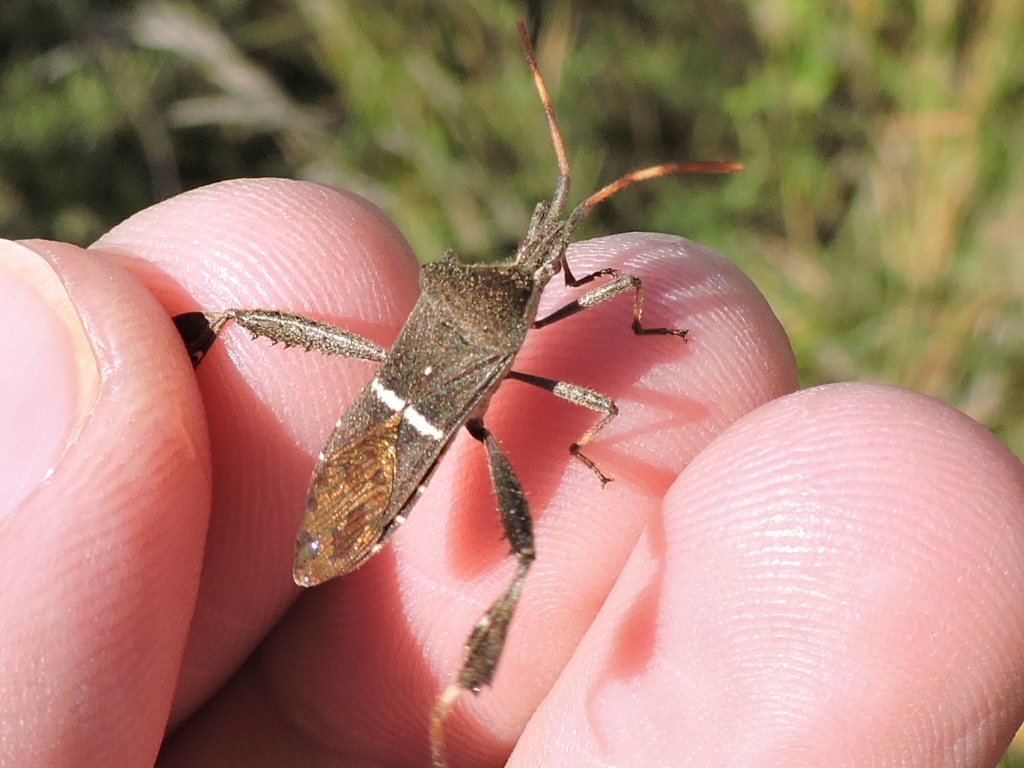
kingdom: Animalia
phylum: Arthropoda
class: Insecta
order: Hemiptera
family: Coreidae
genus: Leptoglossus
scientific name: Leptoglossus phyllopus
